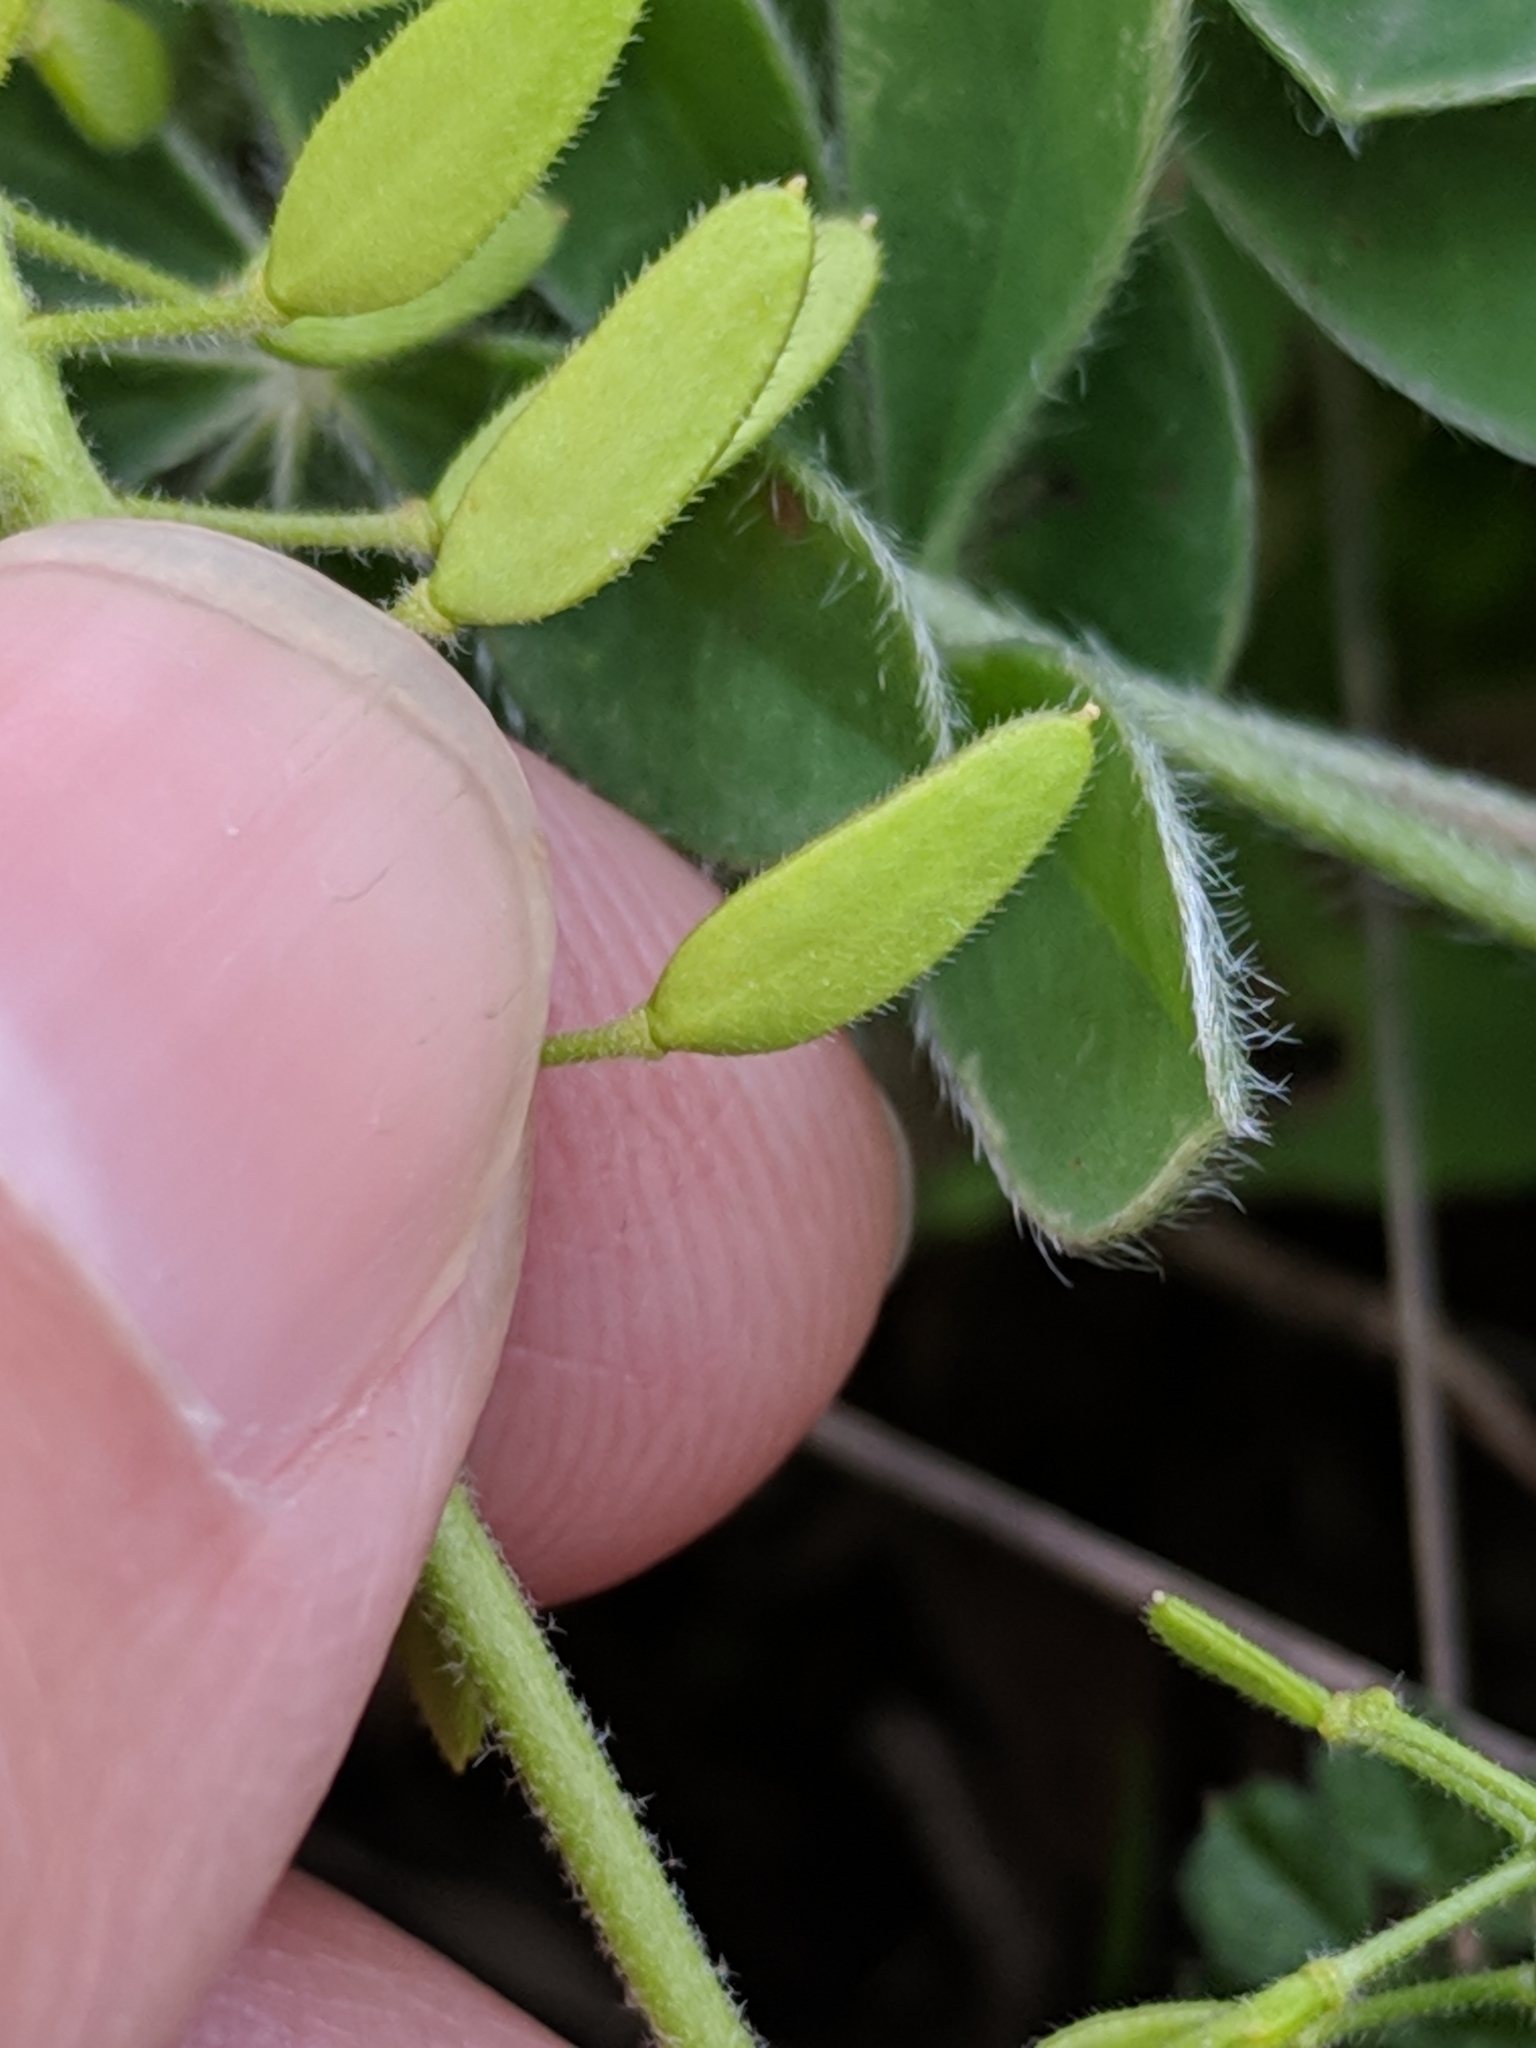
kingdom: Plantae
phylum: Tracheophyta
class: Magnoliopsida
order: Brassicales
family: Brassicaceae
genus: Tomostima
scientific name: Tomostima cuneifolia
